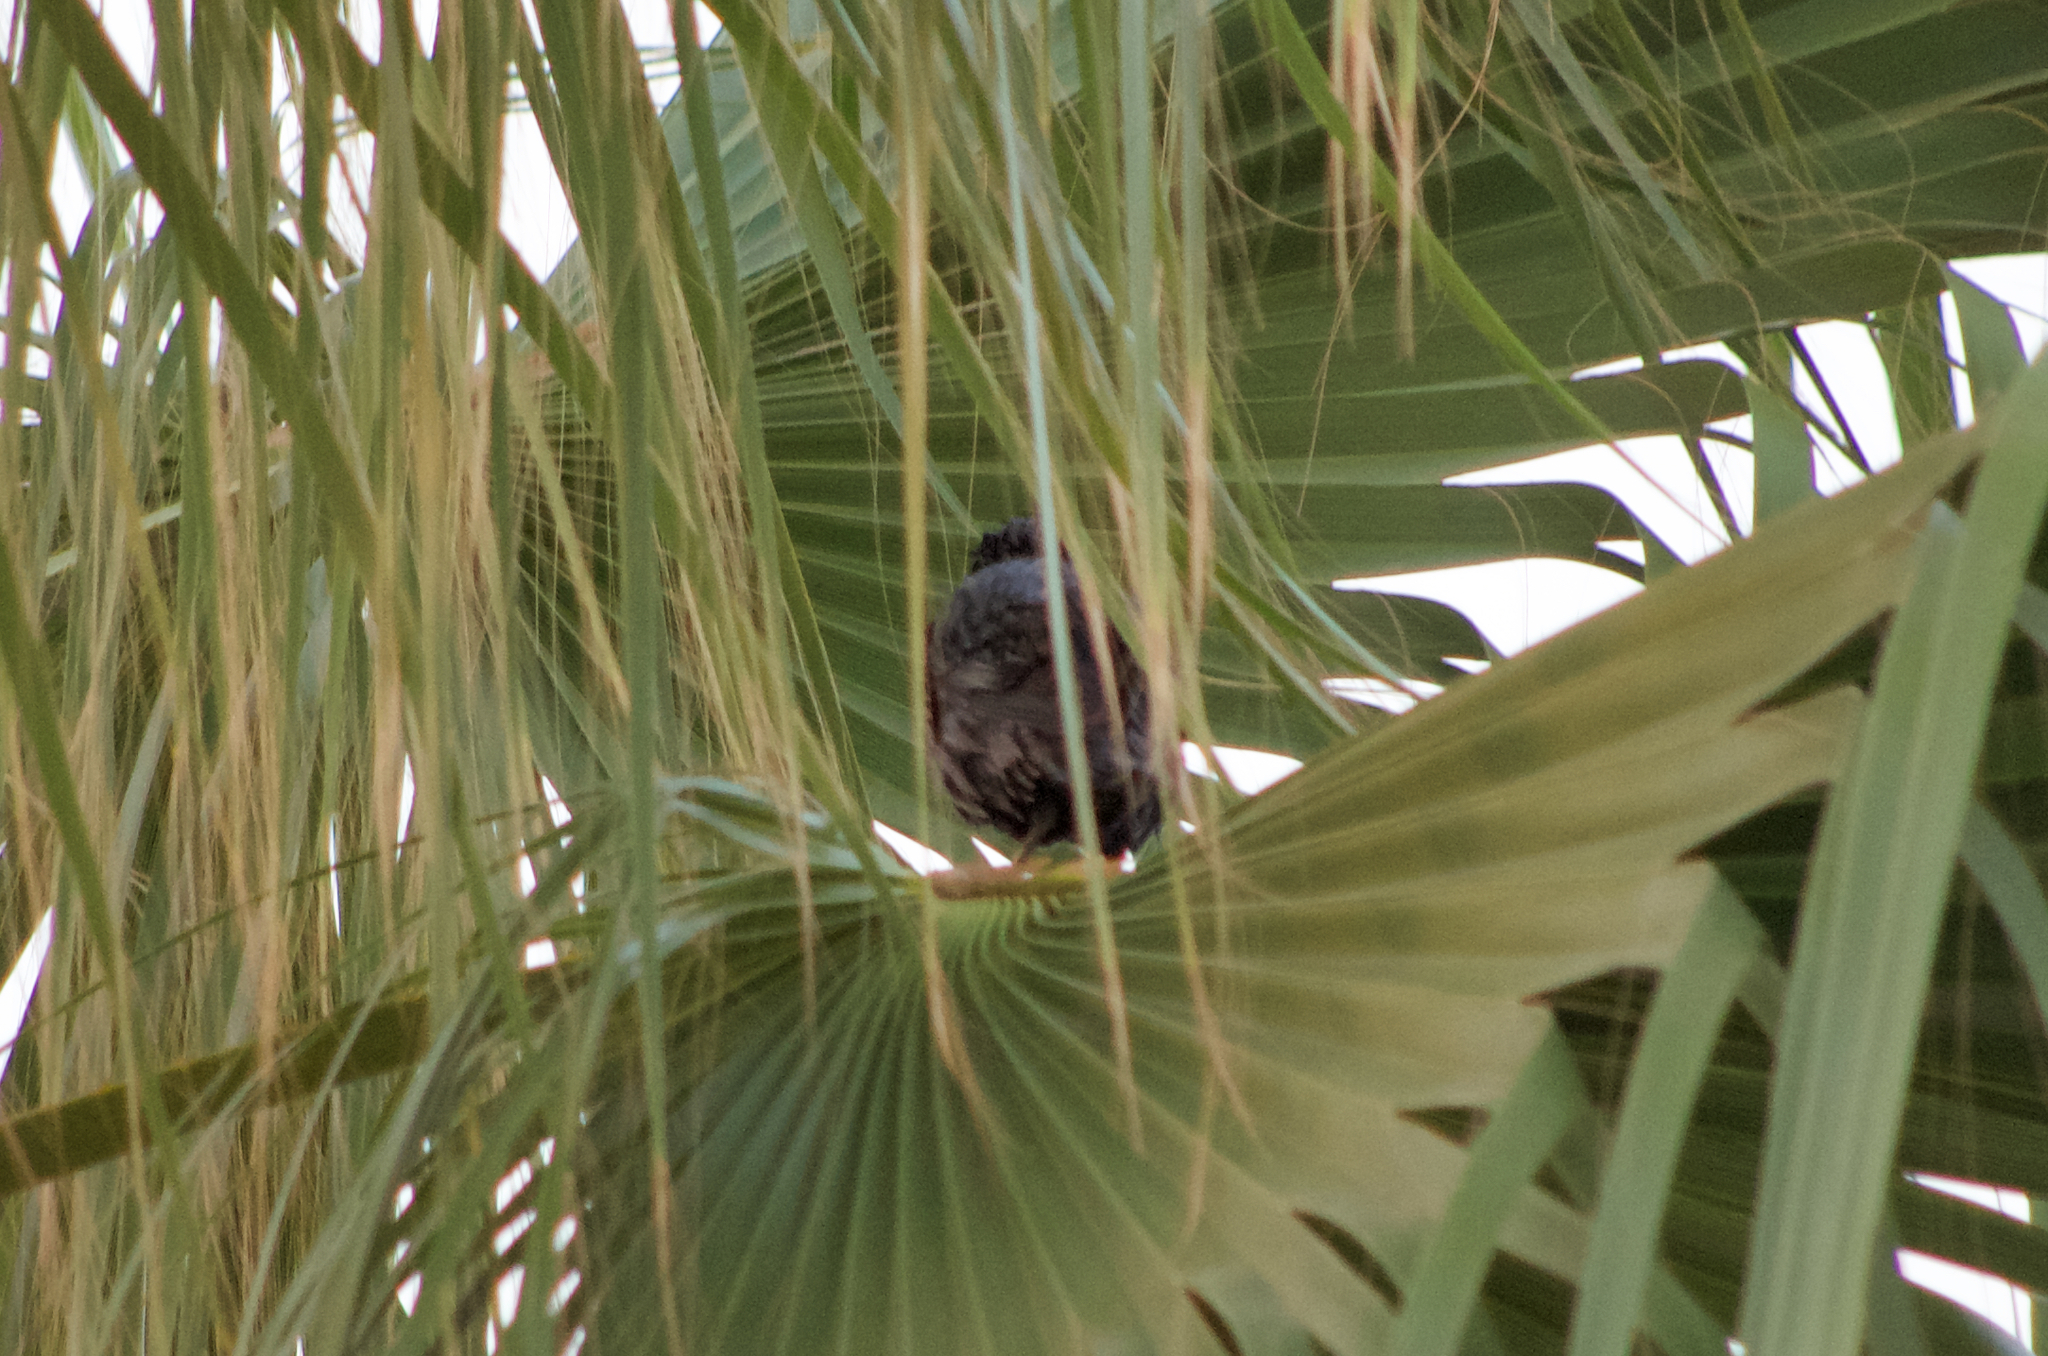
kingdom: Animalia
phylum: Chordata
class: Aves
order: Passeriformes
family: Sturnidae
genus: Sturnus
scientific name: Sturnus unicolor
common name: Spotless starling
